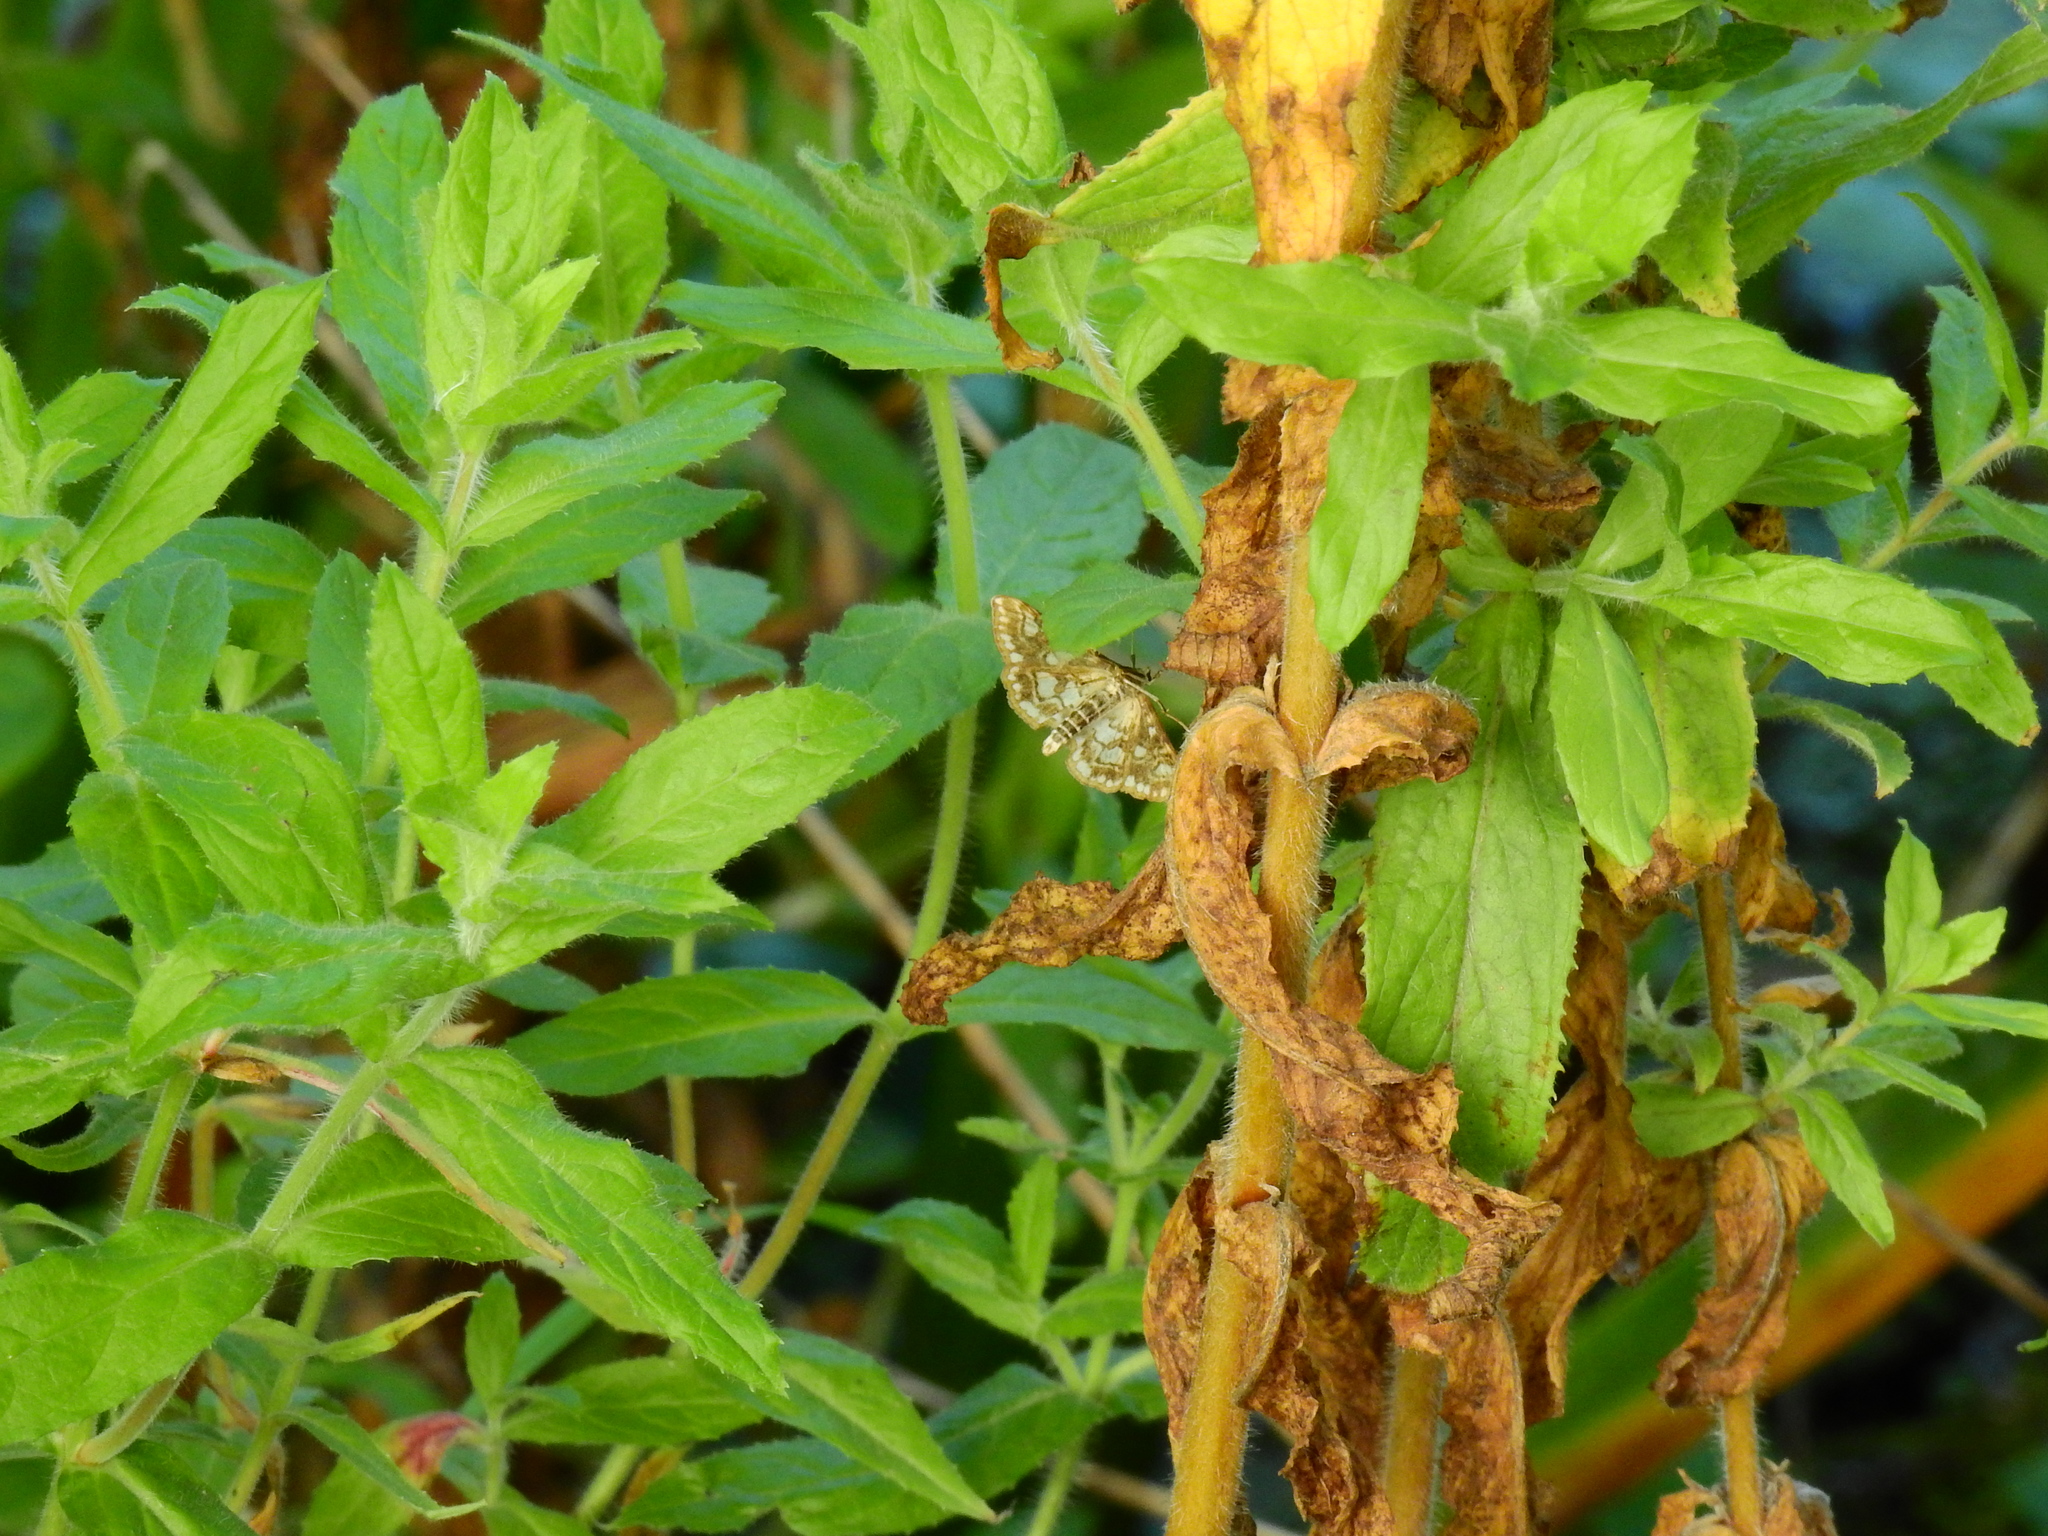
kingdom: Animalia
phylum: Arthropoda
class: Insecta
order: Lepidoptera
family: Crambidae
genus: Elophila
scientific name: Elophila nymphaeata
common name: Brown china-mark
